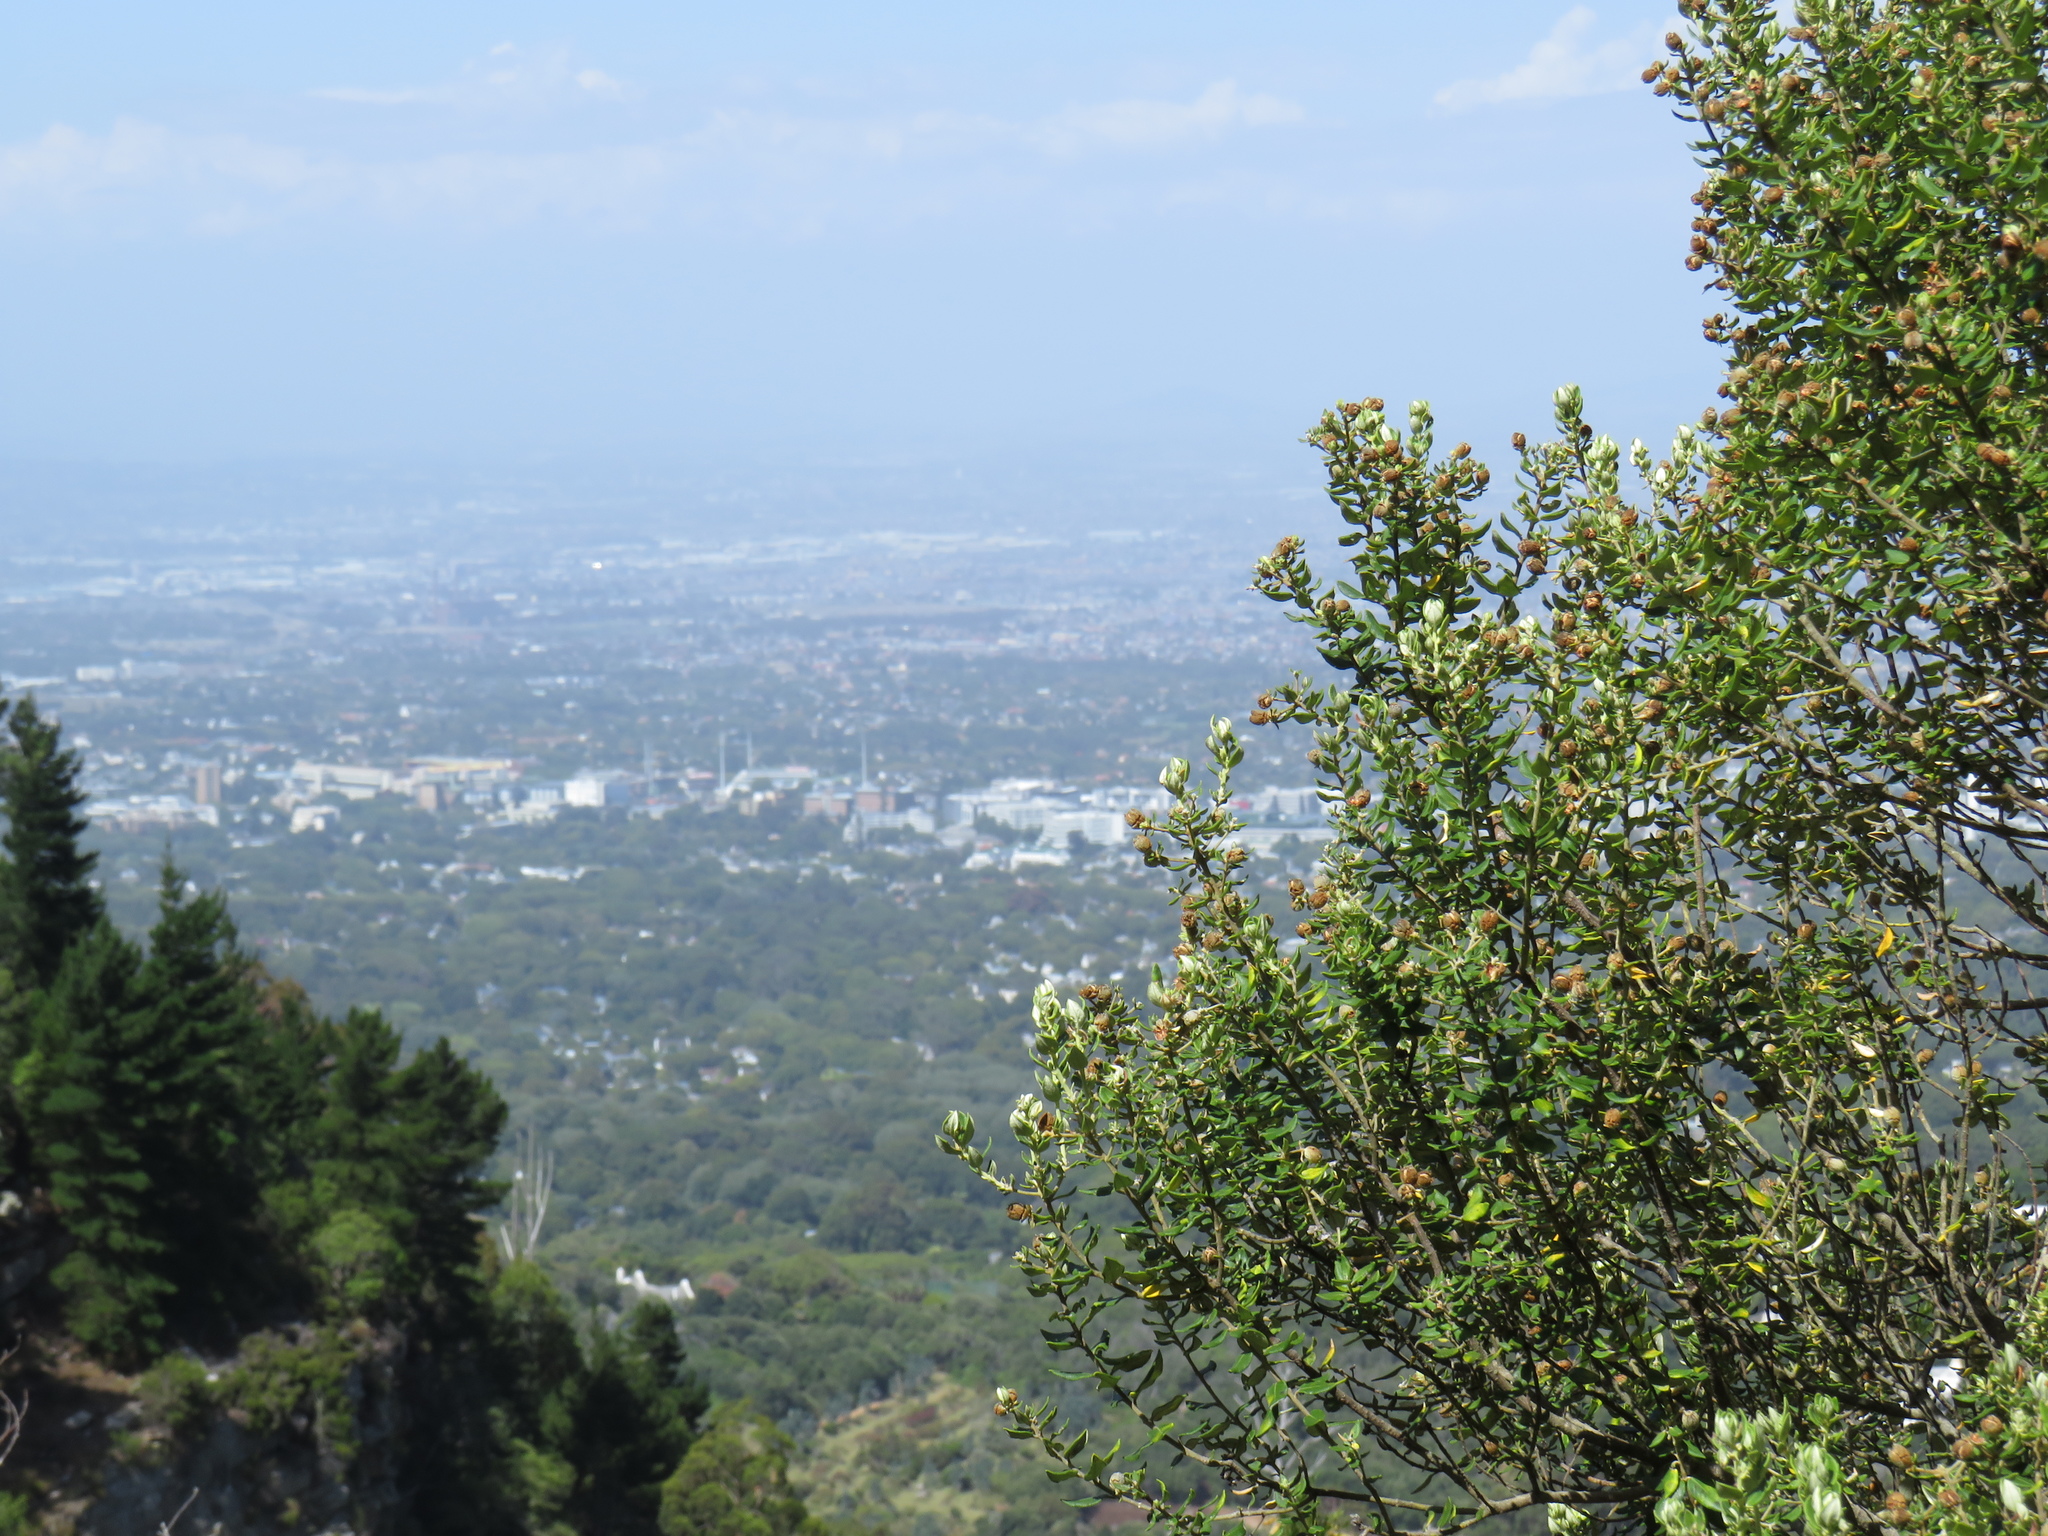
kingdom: Plantae
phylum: Tracheophyta
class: Magnoliopsida
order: Rosales
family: Rhamnaceae
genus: Phylica
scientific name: Phylica buxifolia
